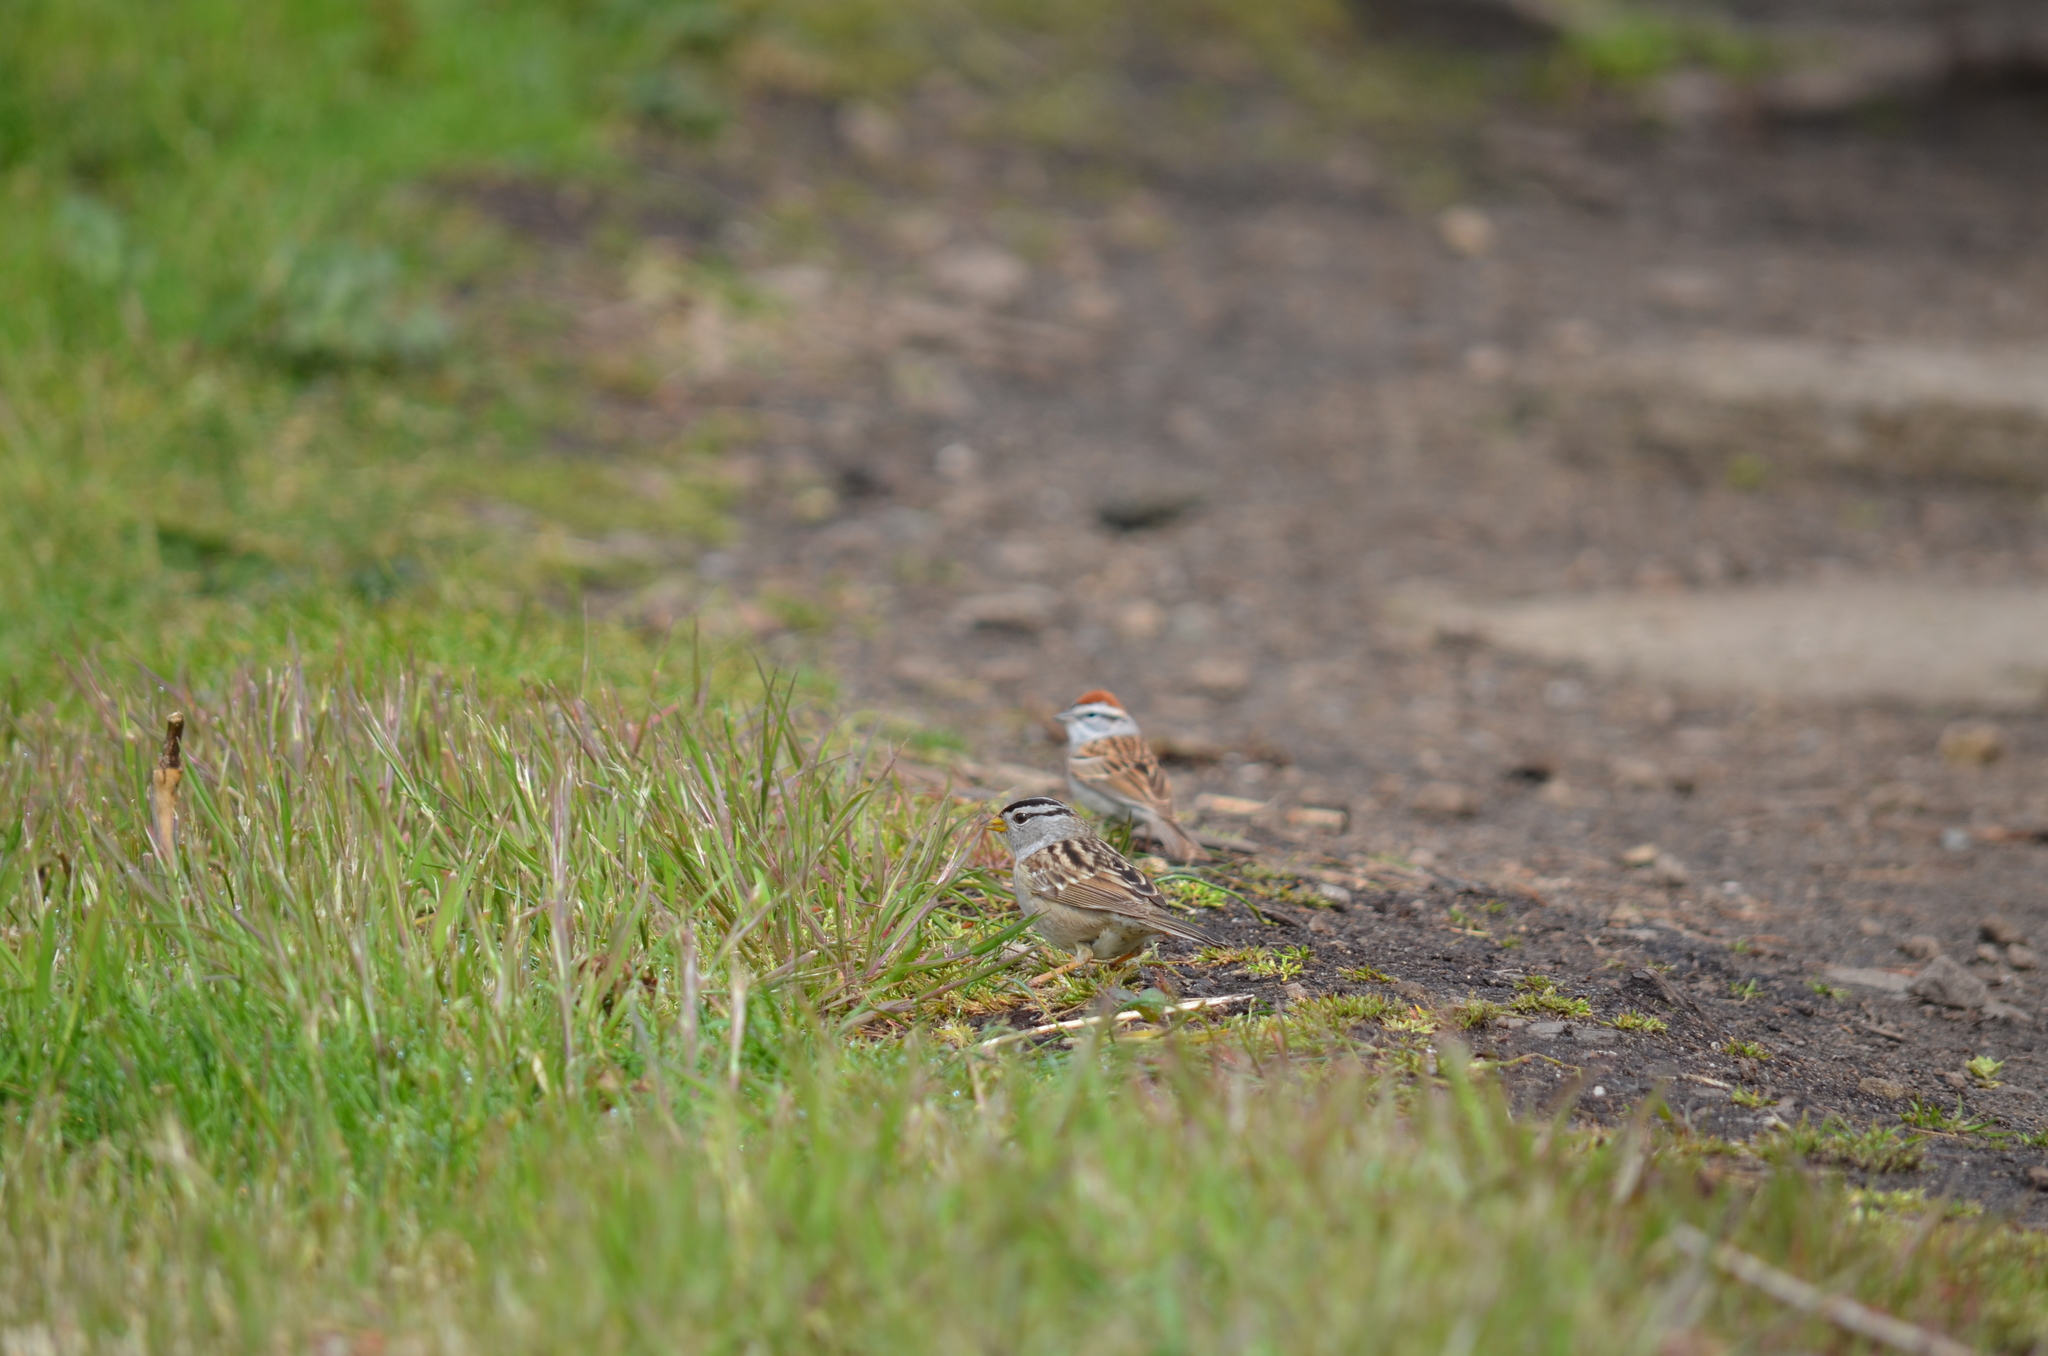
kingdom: Animalia
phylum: Chordata
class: Aves
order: Passeriformes
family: Passerellidae
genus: Spizella
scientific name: Spizella passerina
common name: Chipping sparrow
